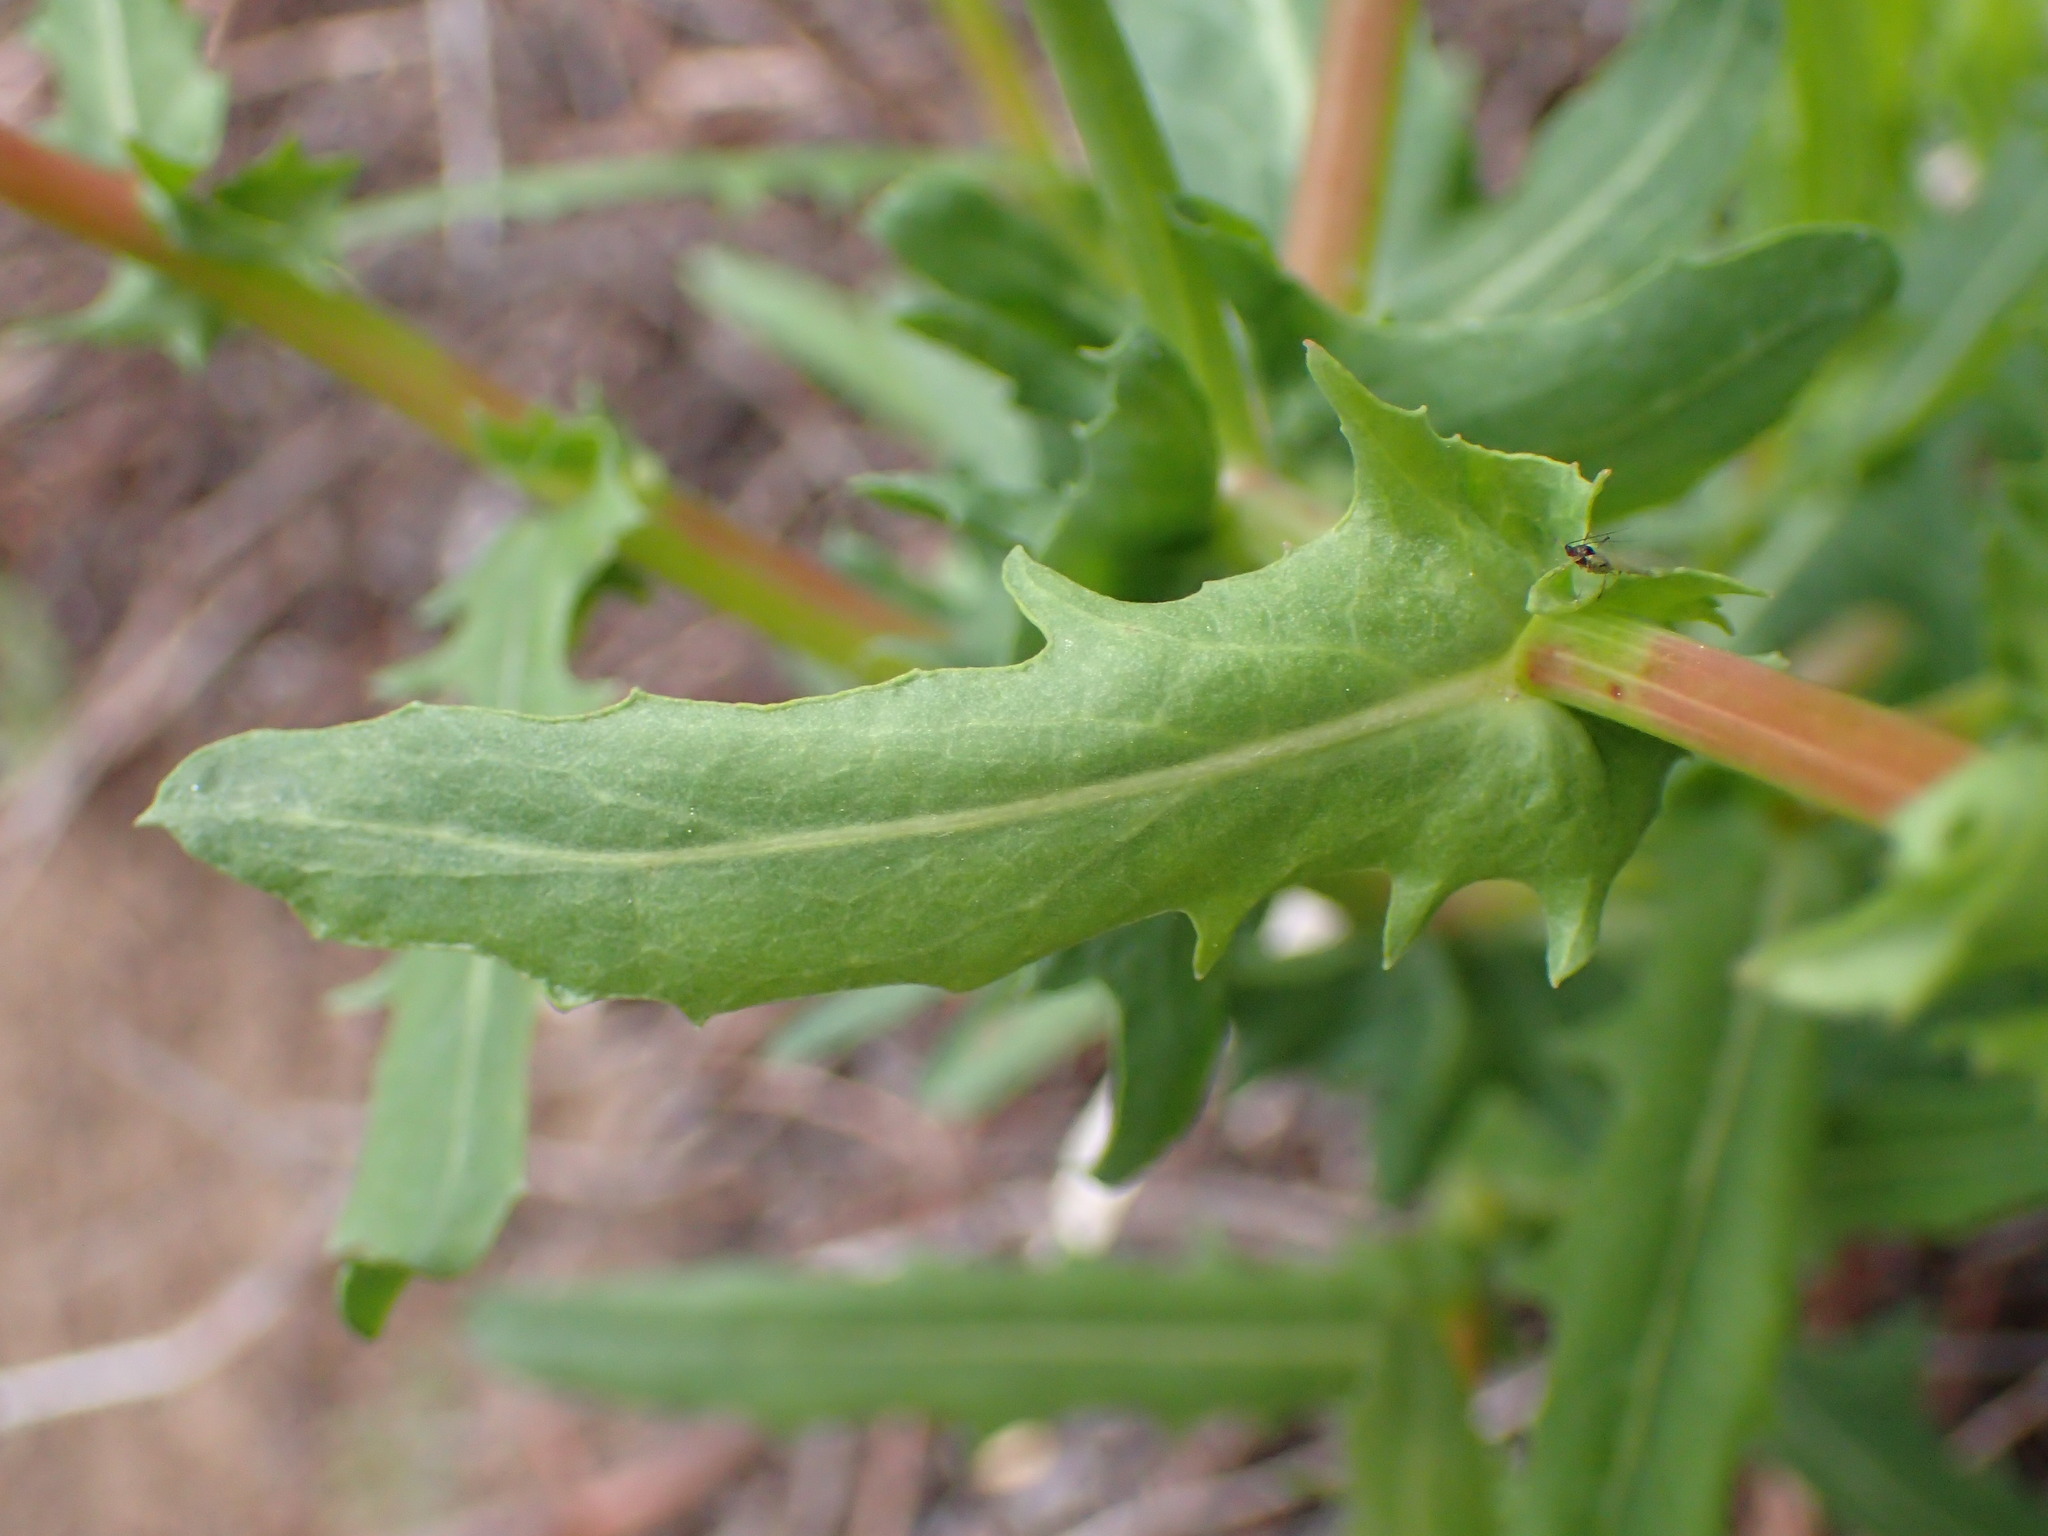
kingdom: Plantae
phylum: Tracheophyta
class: Magnoliopsida
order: Asterales
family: Asteraceae
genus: Rafinesquia
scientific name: Rafinesquia californica
